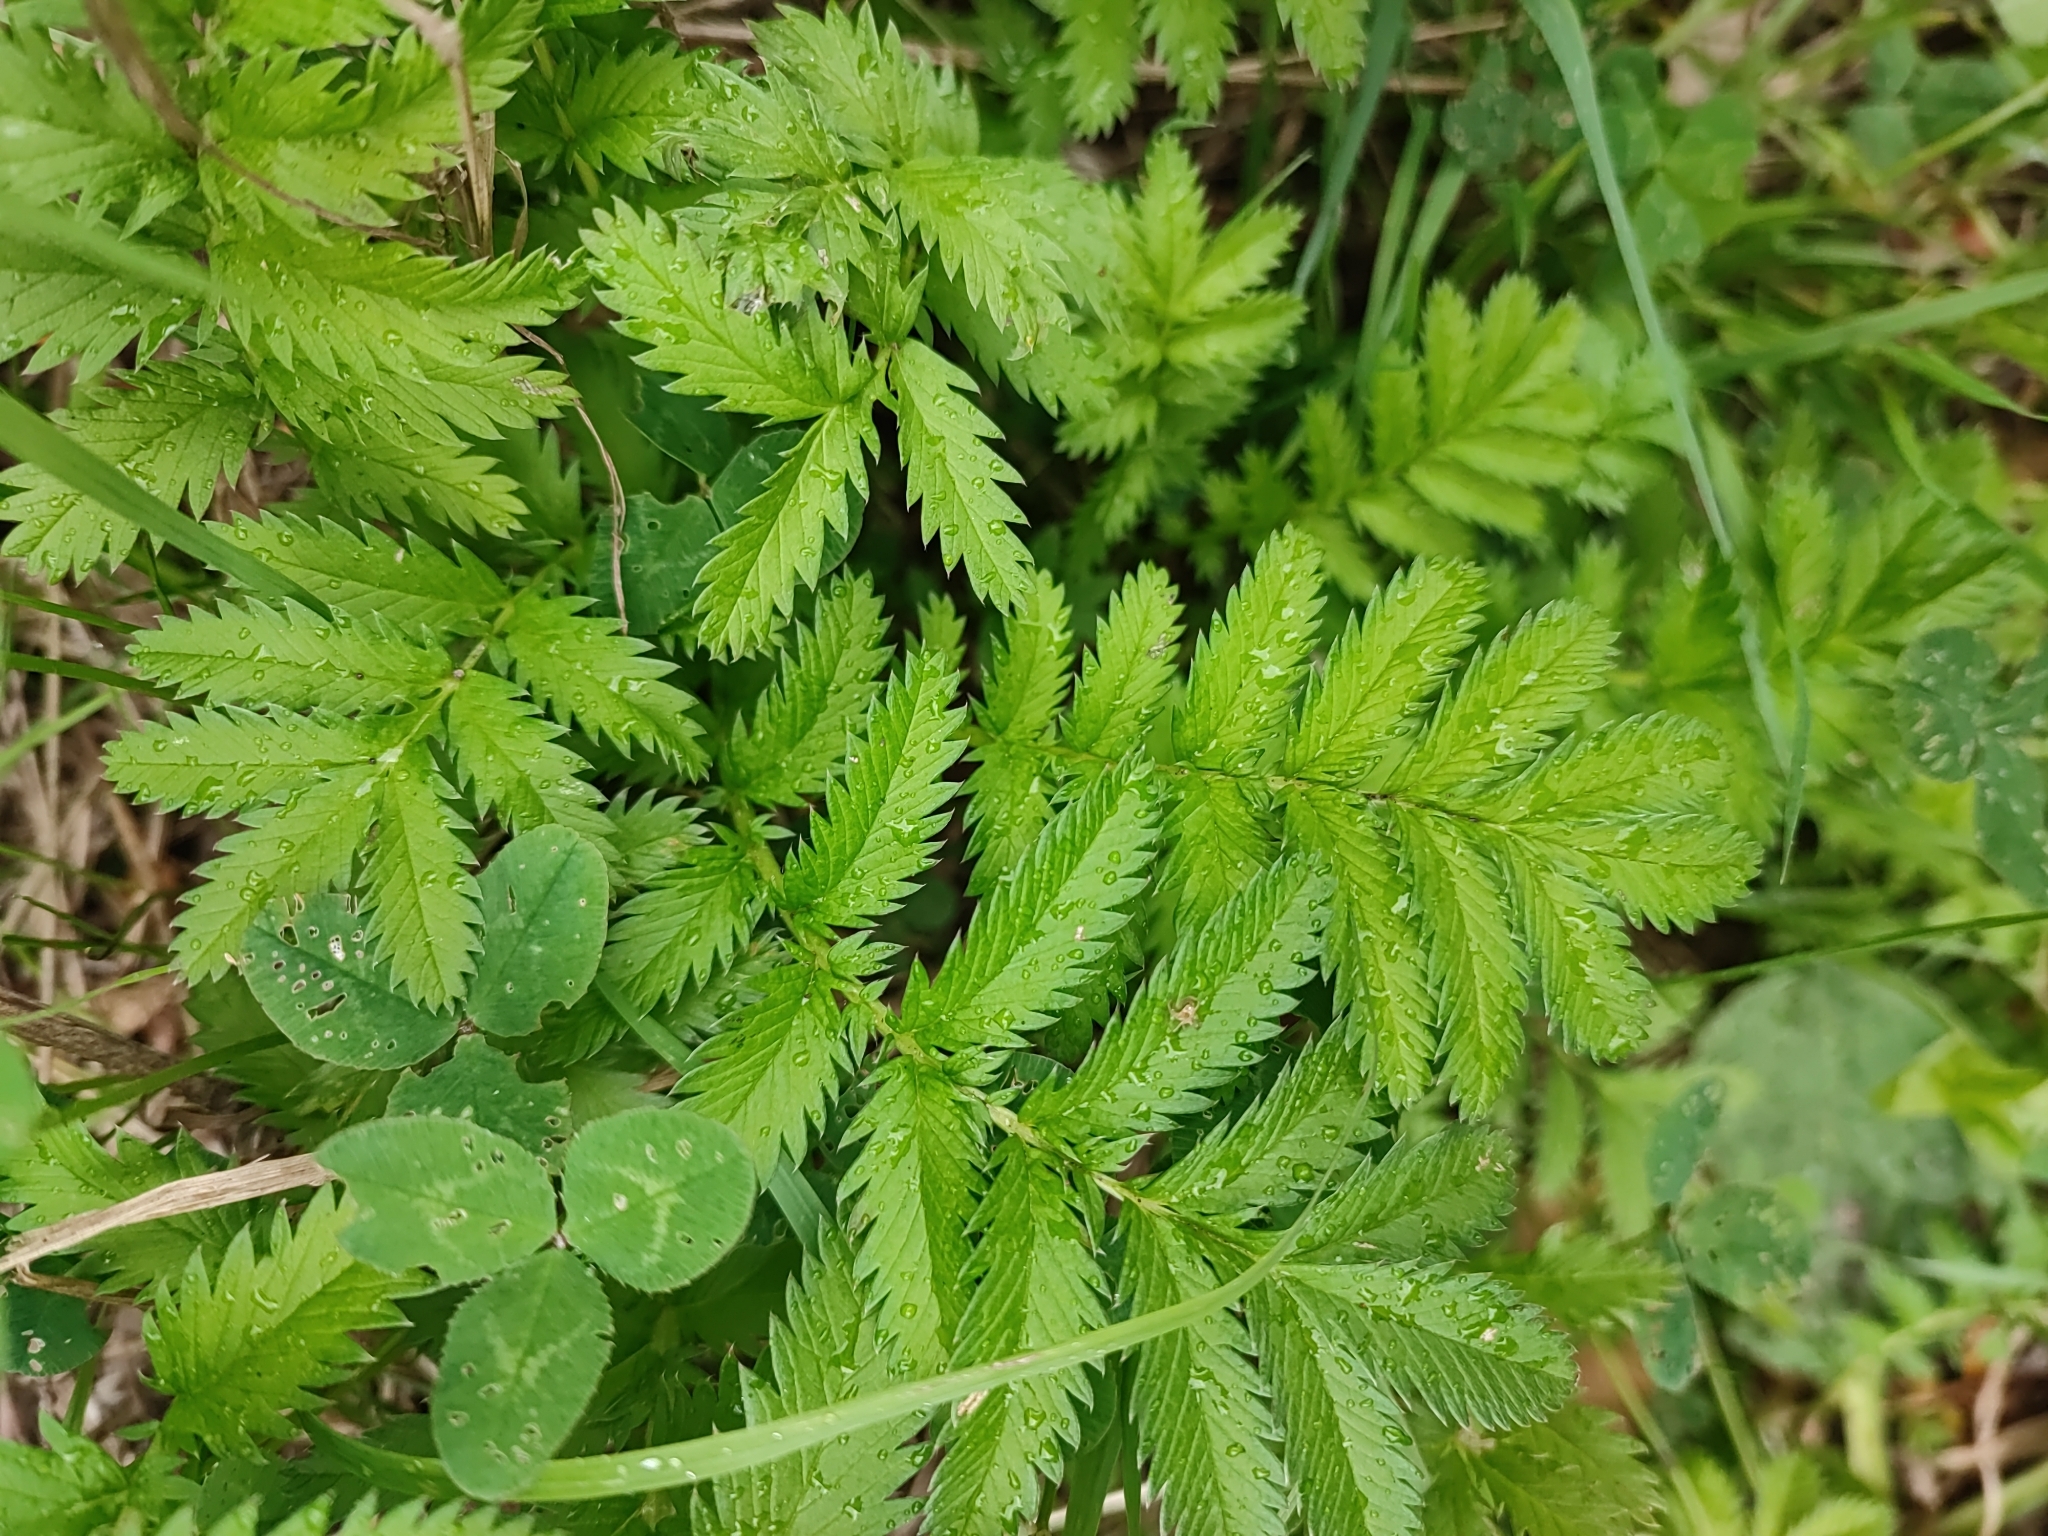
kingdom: Plantae
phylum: Tracheophyta
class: Magnoliopsida
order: Rosales
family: Rosaceae
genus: Argentina
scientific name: Argentina anserina
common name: Common silverweed
